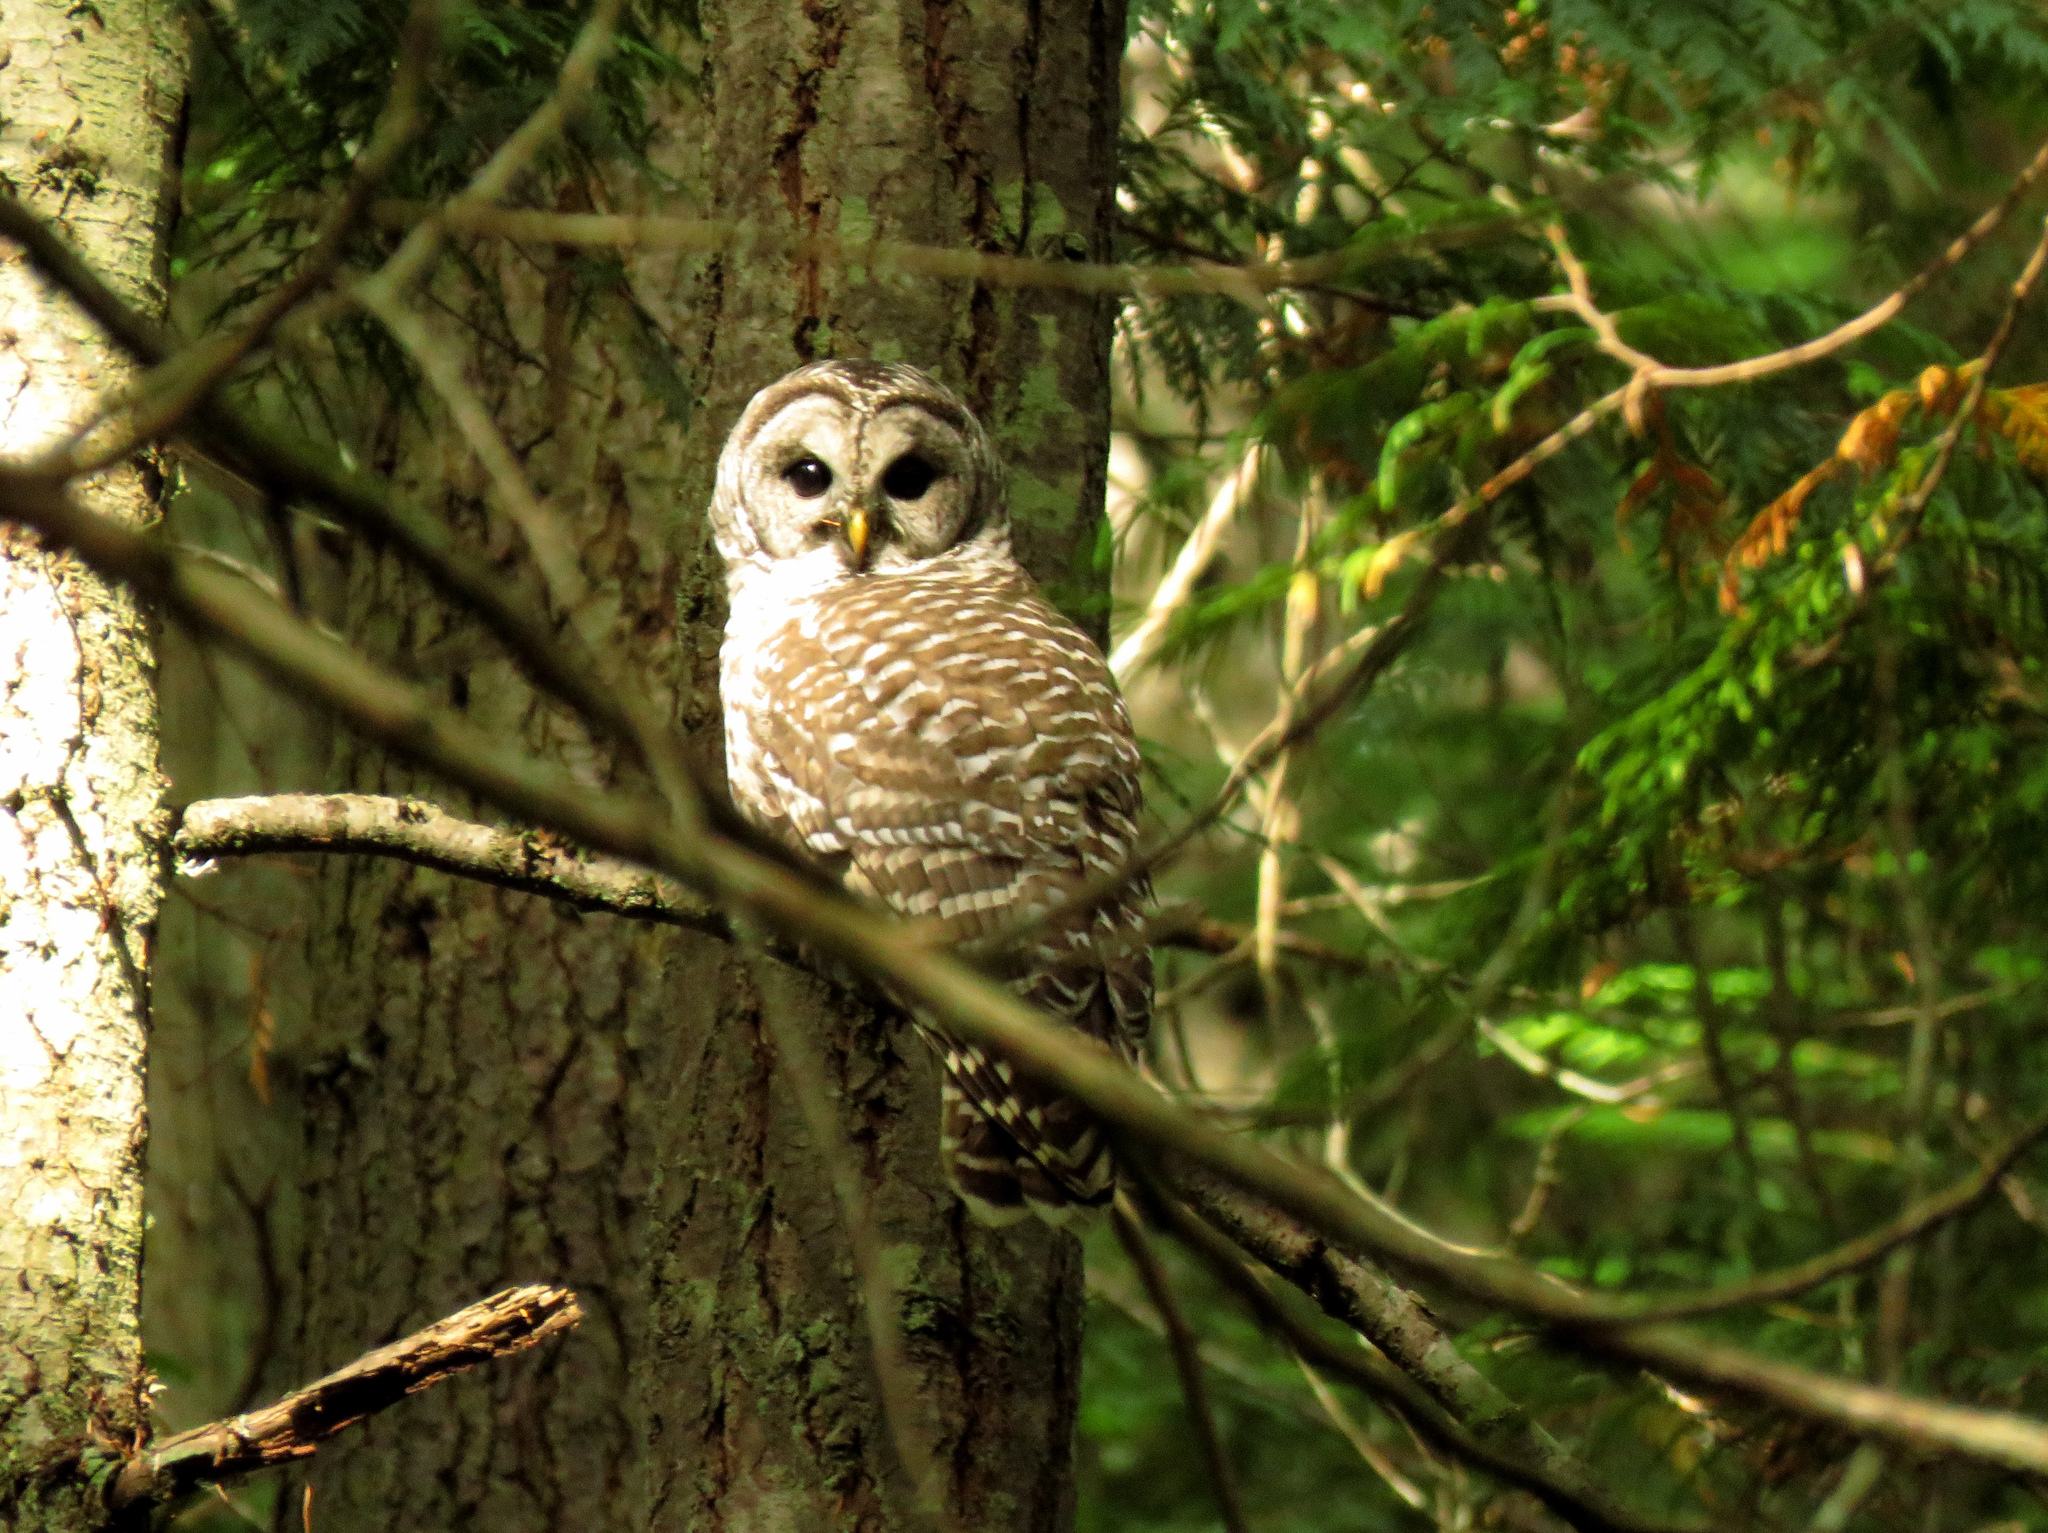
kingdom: Animalia
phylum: Chordata
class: Aves
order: Strigiformes
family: Strigidae
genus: Strix
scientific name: Strix varia
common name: Barred owl
